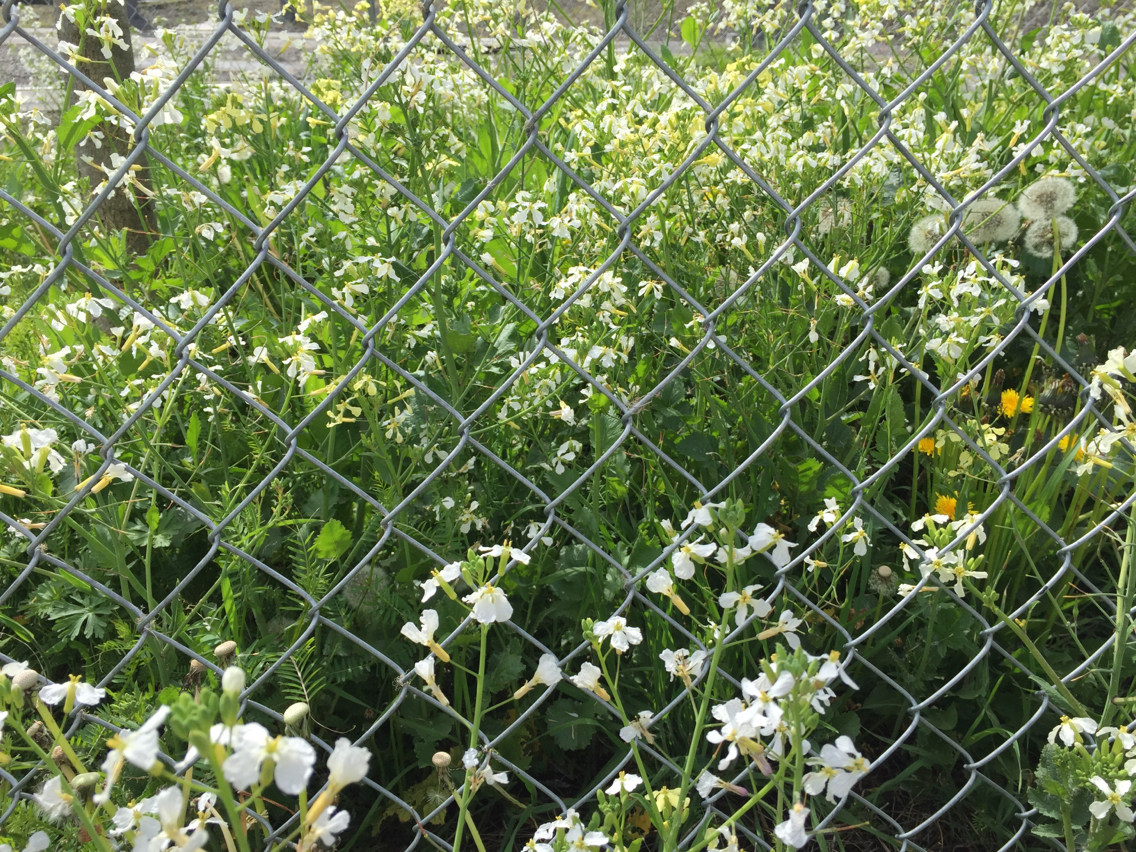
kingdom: Plantae
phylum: Tracheophyta
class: Magnoliopsida
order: Brassicales
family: Brassicaceae
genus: Raphanus
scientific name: Raphanus raphanistrum
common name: Wild radish
